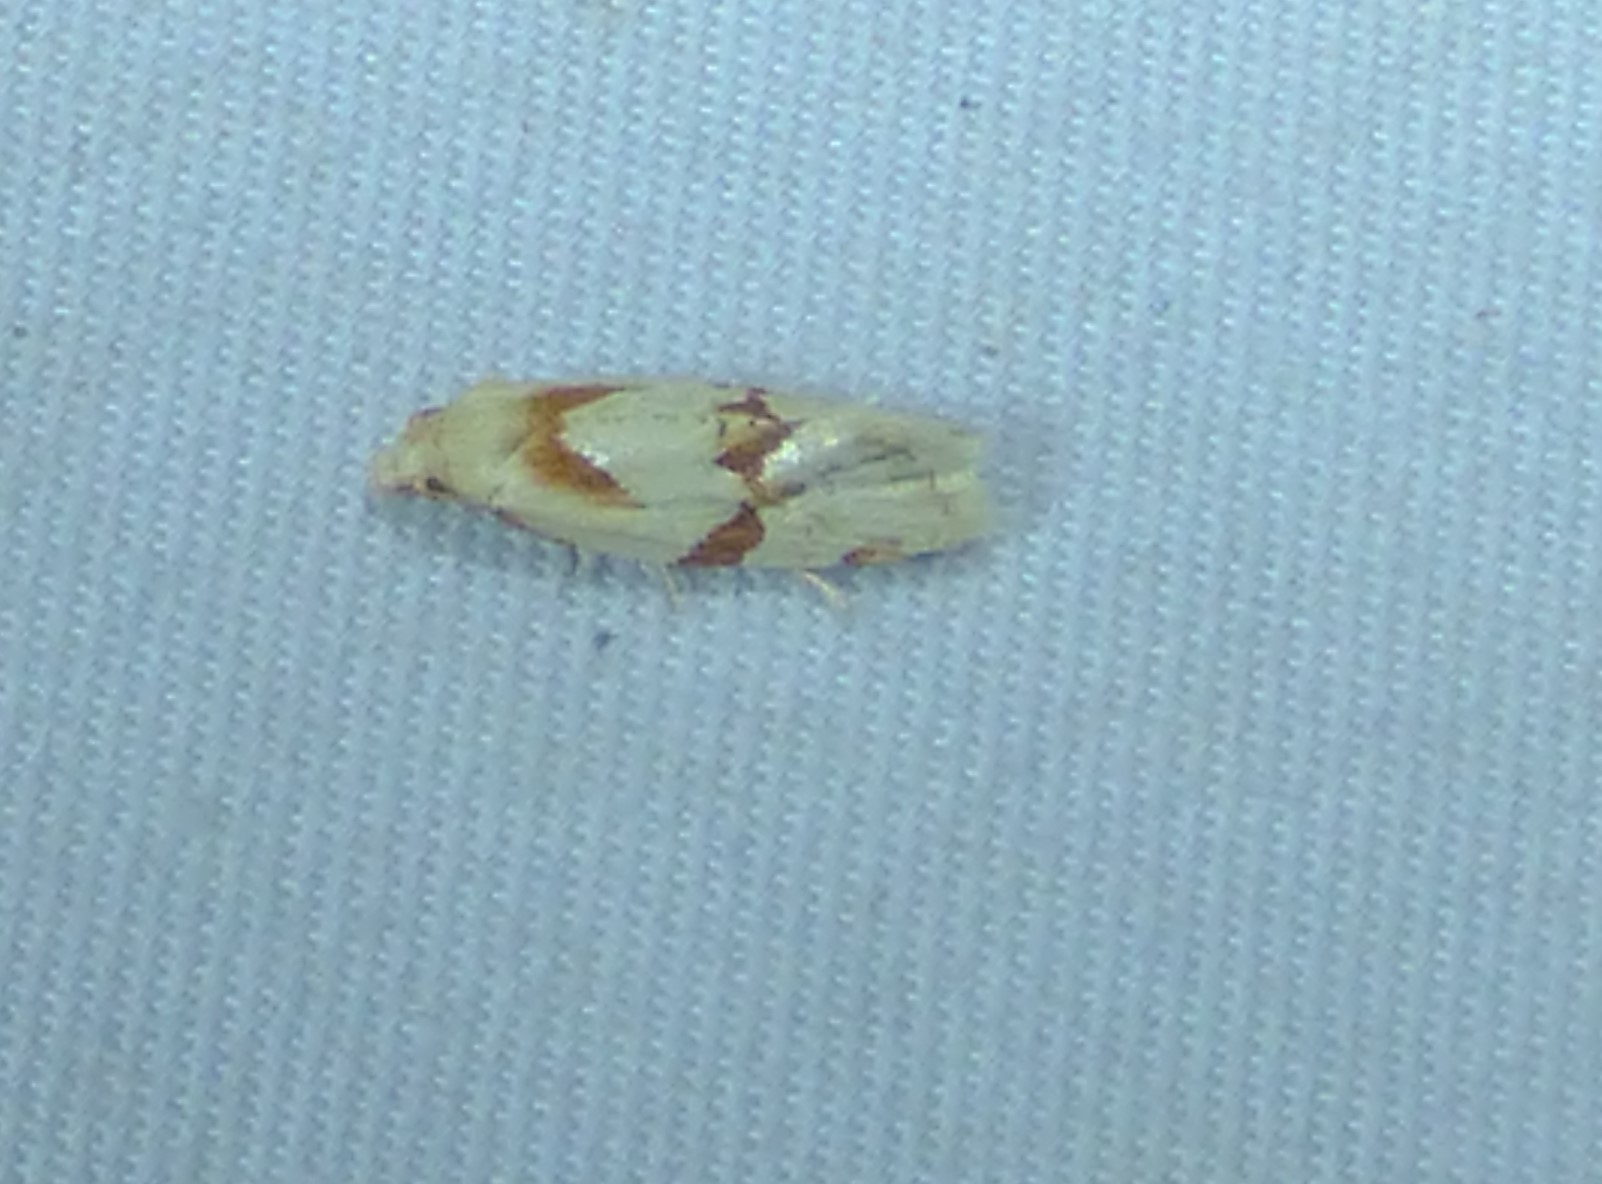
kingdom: Animalia
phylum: Arthropoda
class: Insecta
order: Lepidoptera
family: Tortricidae
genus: Aethes
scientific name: Aethes baloghi
